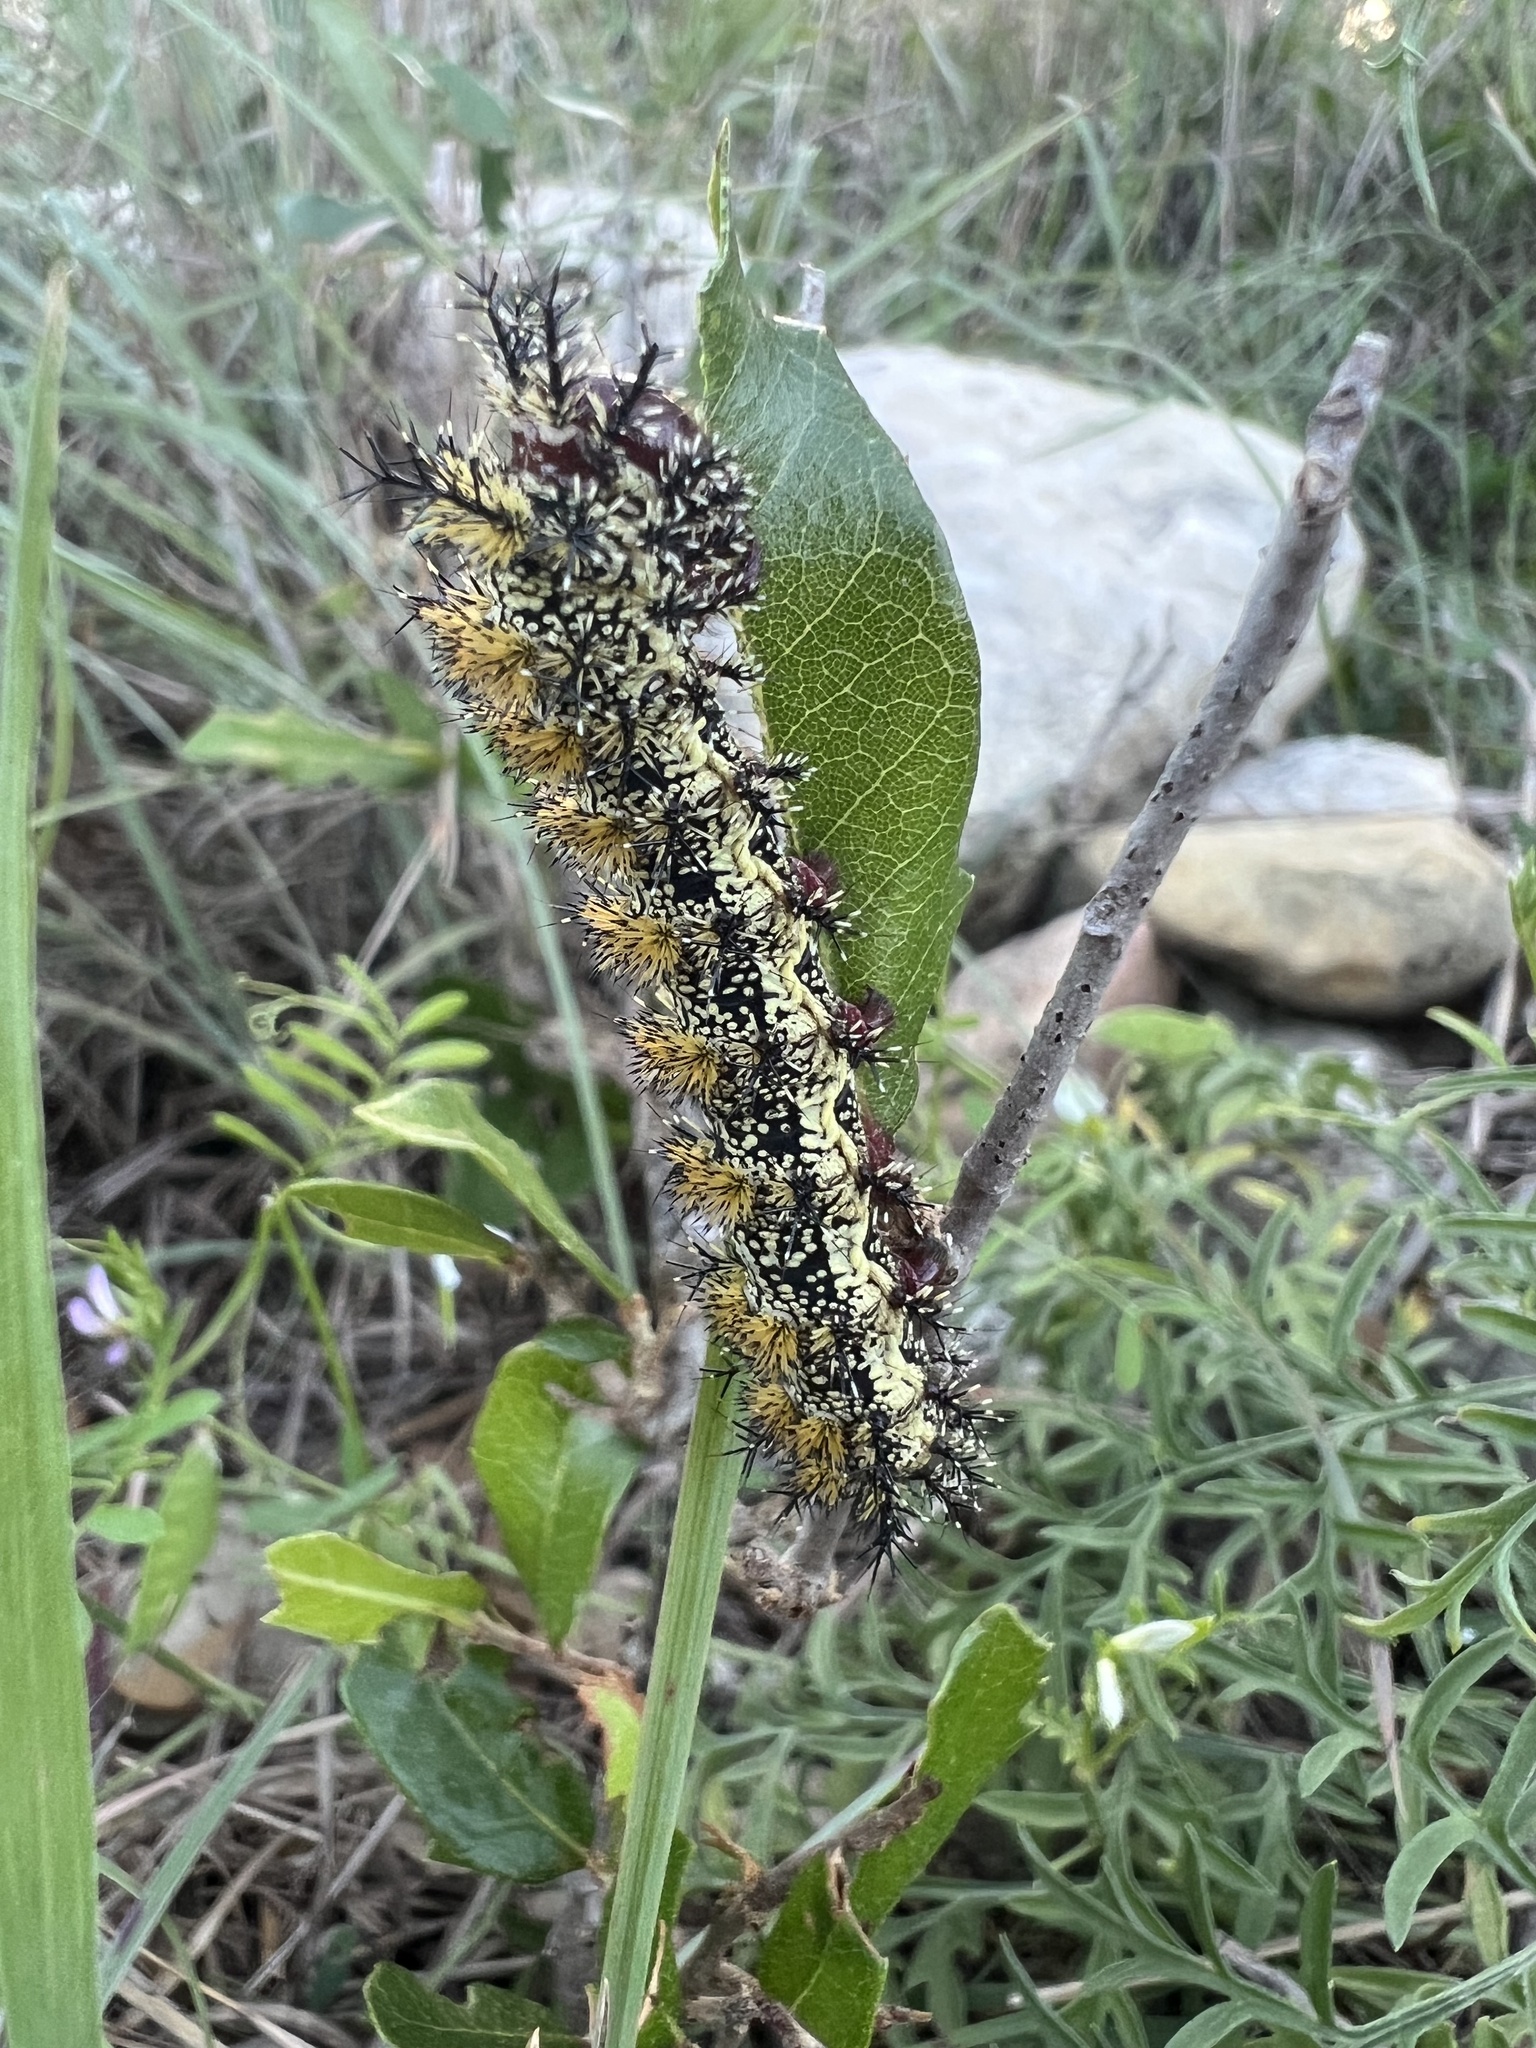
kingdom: Animalia
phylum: Arthropoda
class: Insecta
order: Lepidoptera
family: Saturniidae
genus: Hemileuca
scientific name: Hemileuca peigleri
